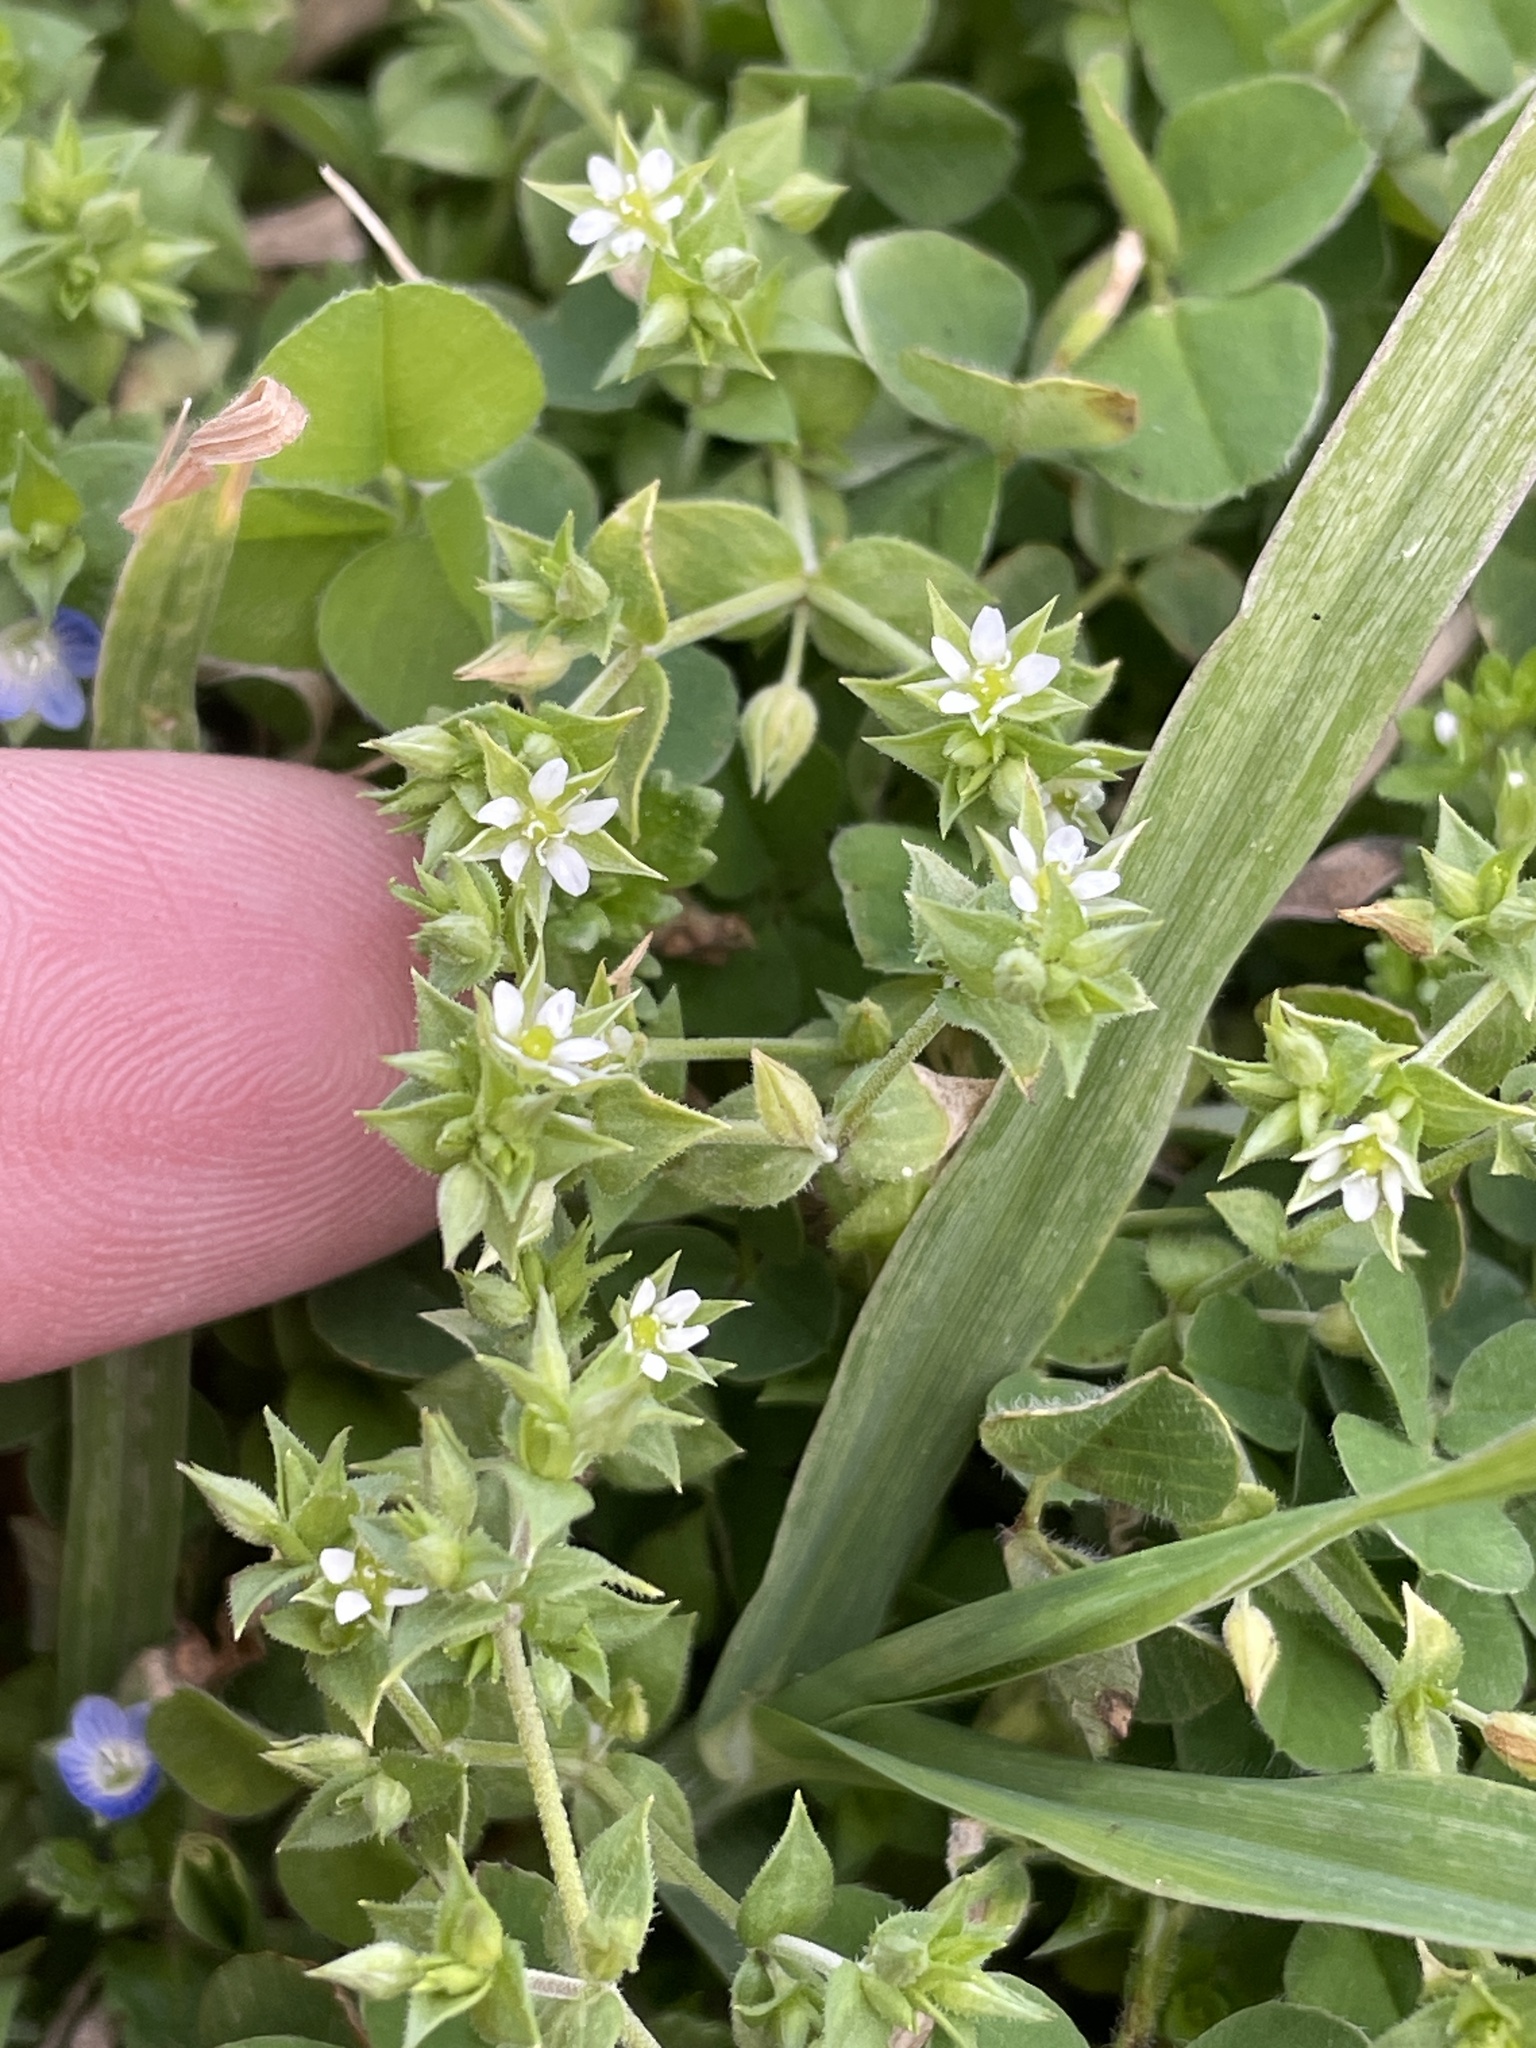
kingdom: Plantae
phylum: Tracheophyta
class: Magnoliopsida
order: Caryophyllales
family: Caryophyllaceae
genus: Arenaria
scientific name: Arenaria serpyllifolia
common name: Thyme-leaved sandwort
